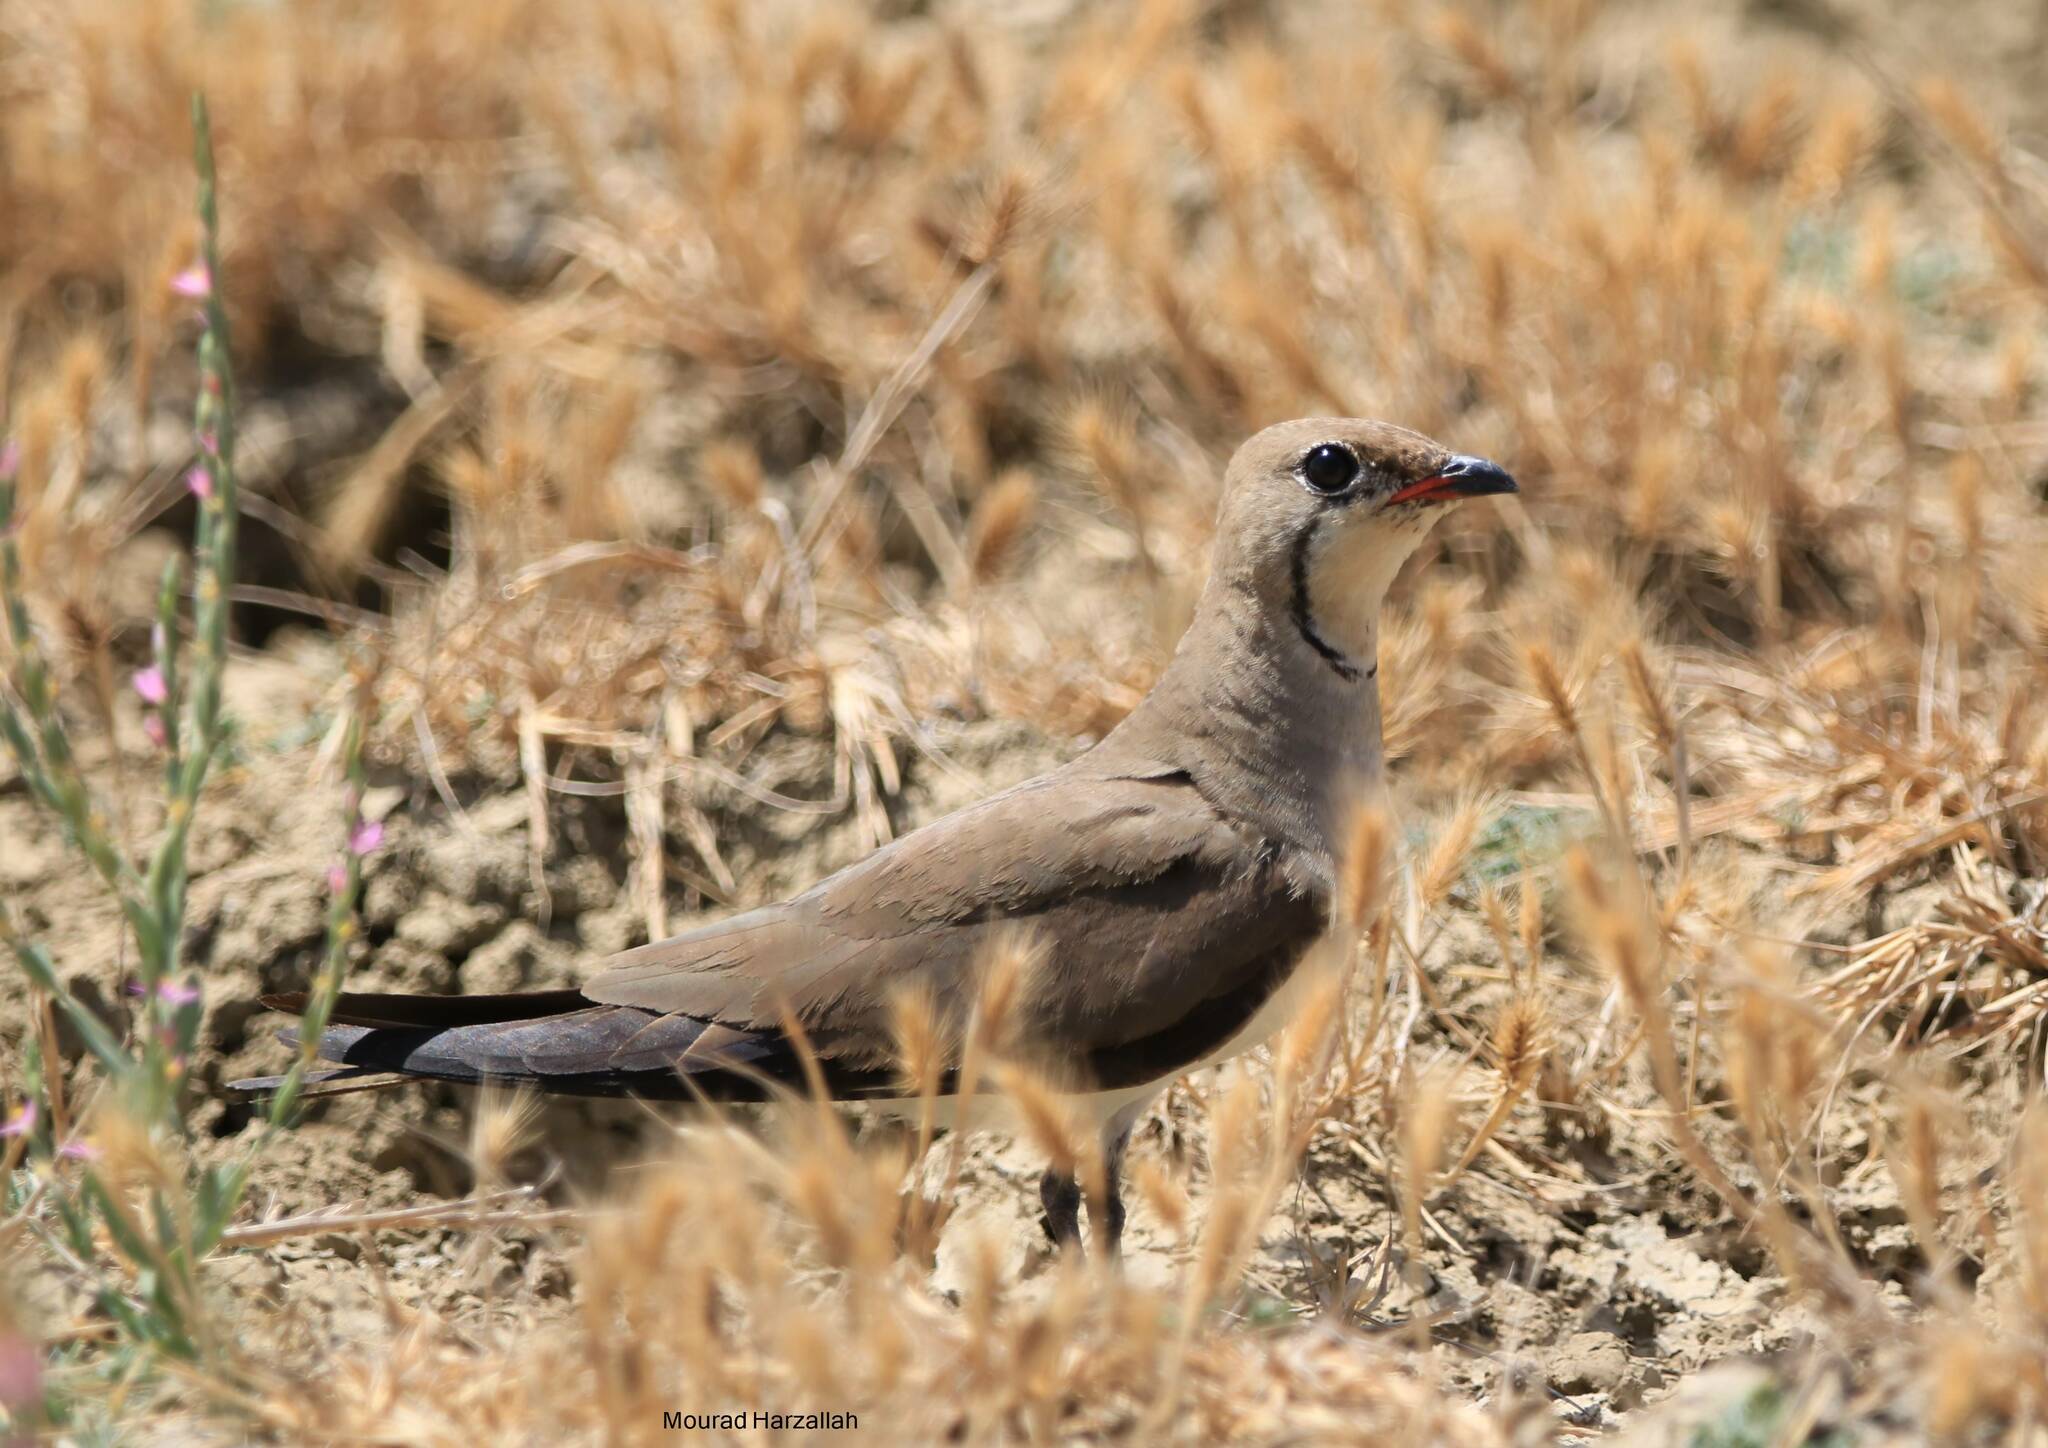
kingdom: Animalia
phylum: Chordata
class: Aves
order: Charadriiformes
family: Glareolidae
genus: Glareola
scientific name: Glareola pratincola
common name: Collared pratincole
